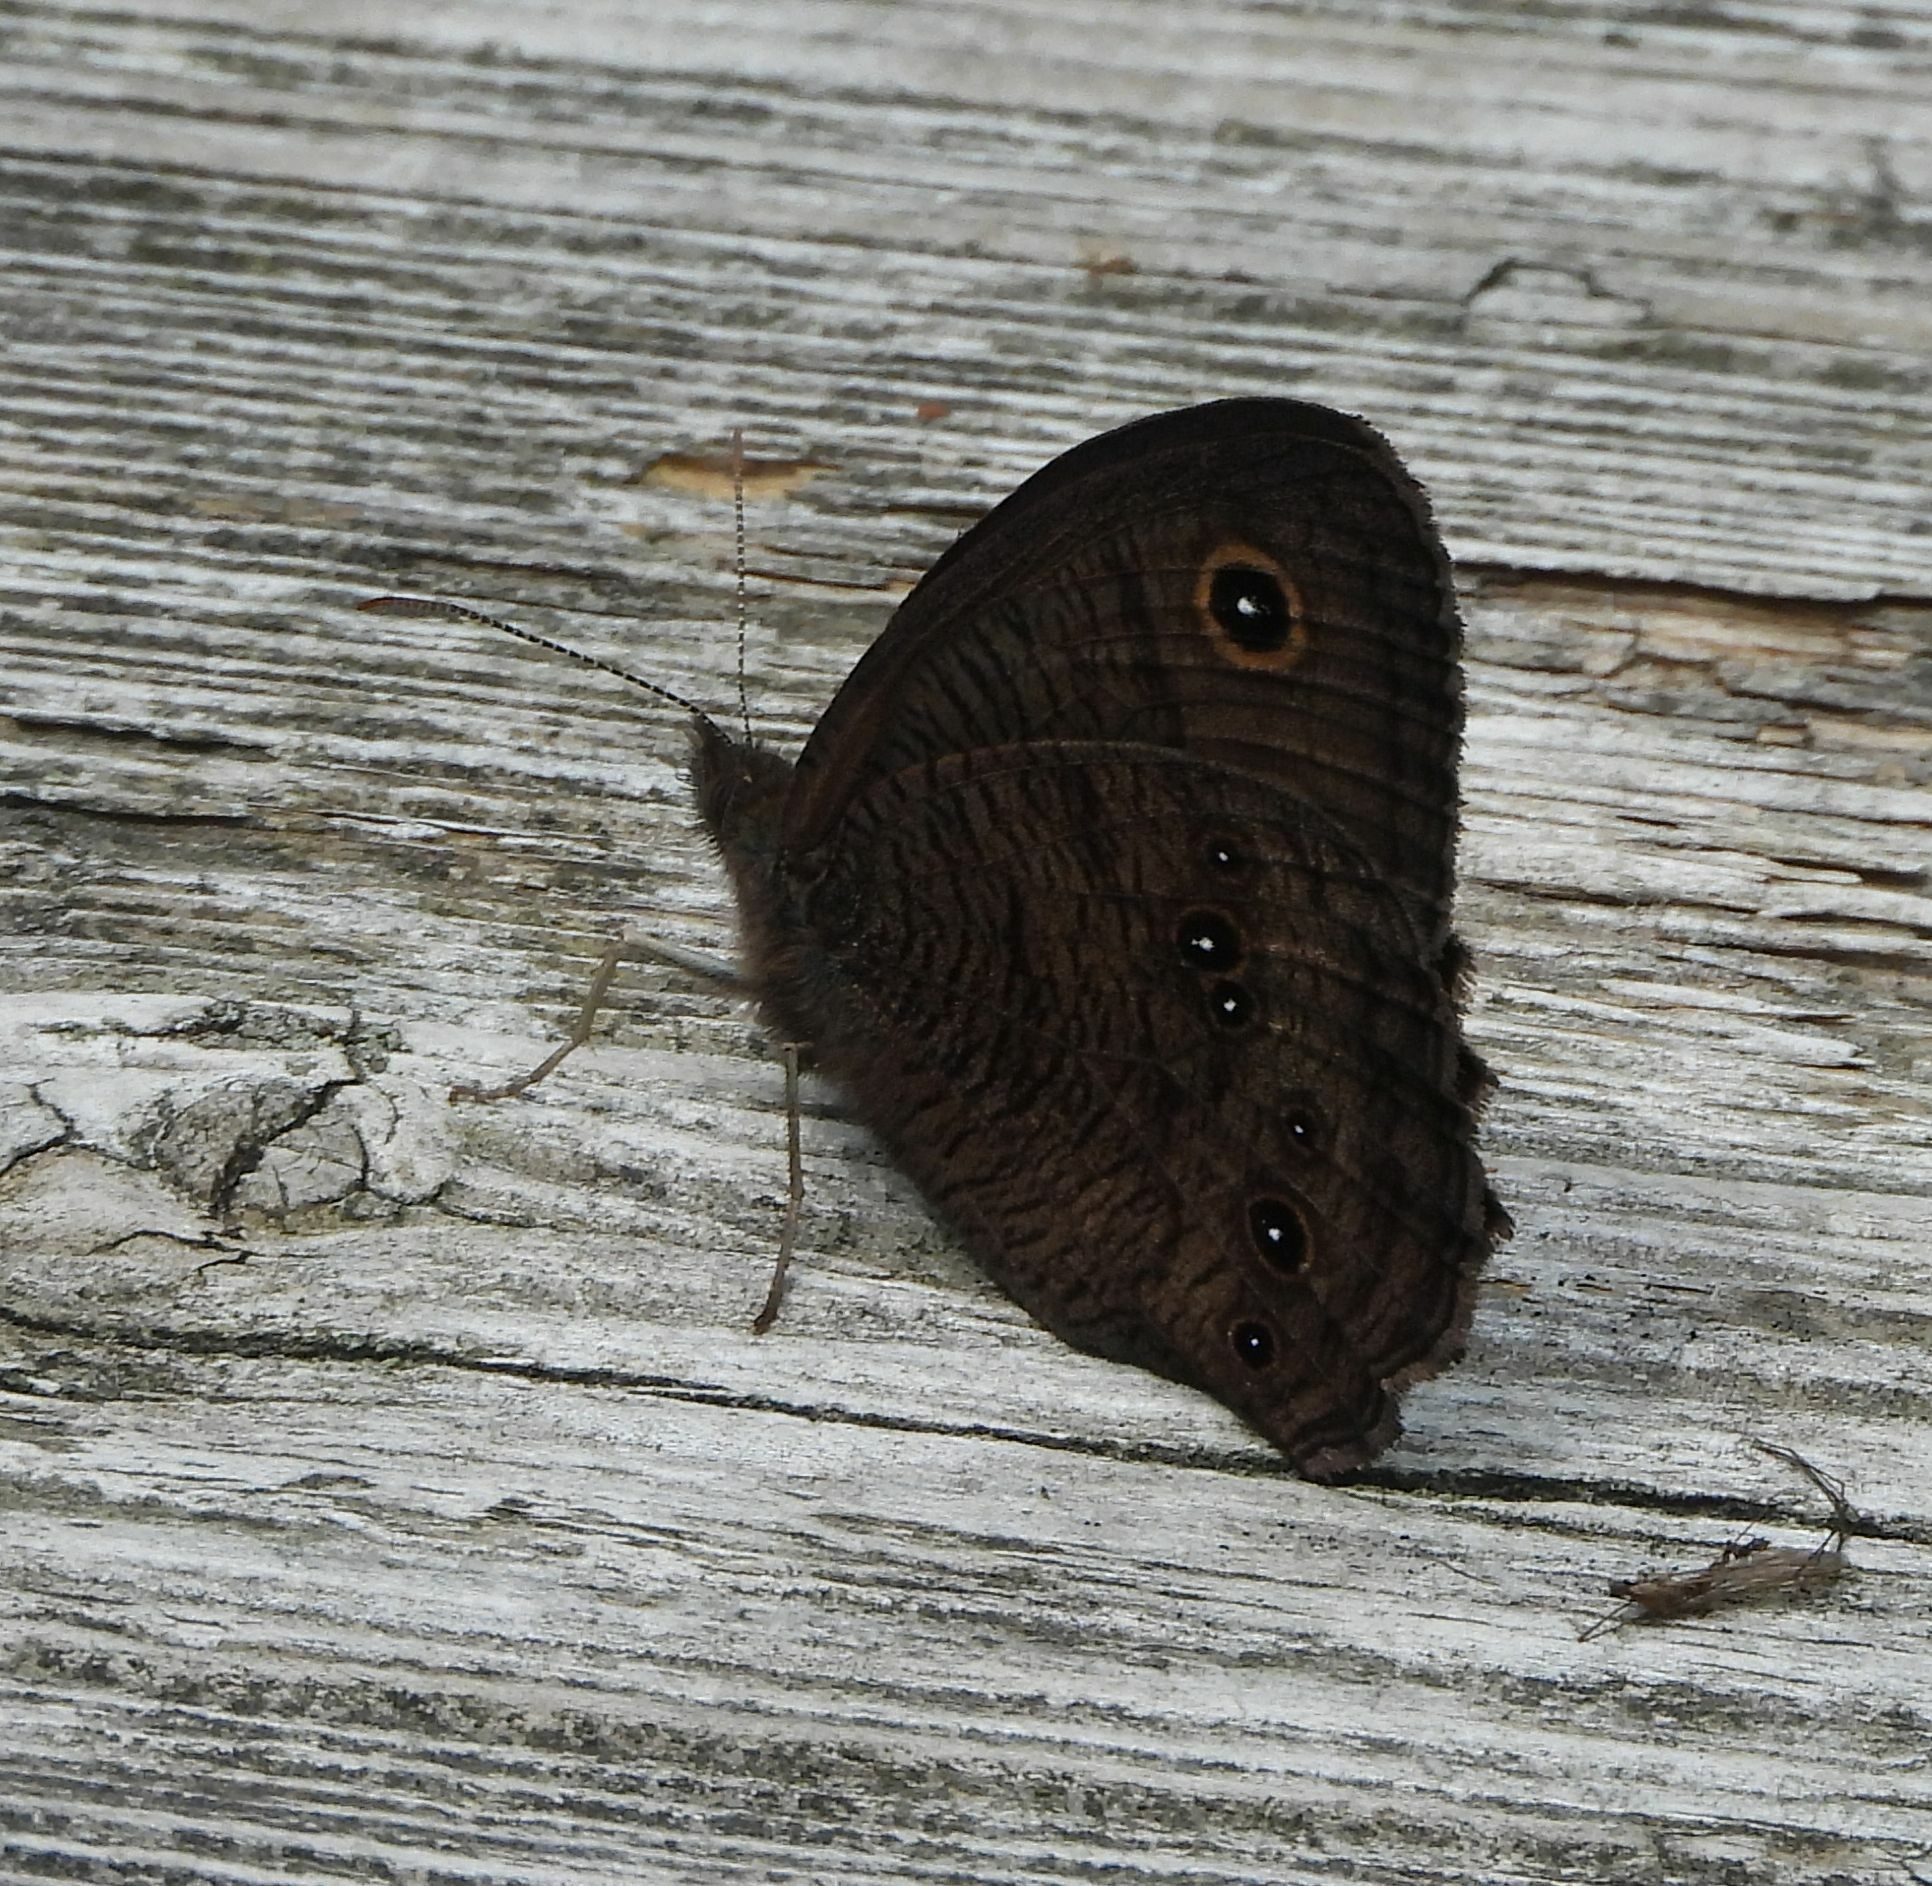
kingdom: Animalia
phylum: Arthropoda
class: Insecta
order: Lepidoptera
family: Nymphalidae
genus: Cercyonis
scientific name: Cercyonis pegala
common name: Common wood-nymph
